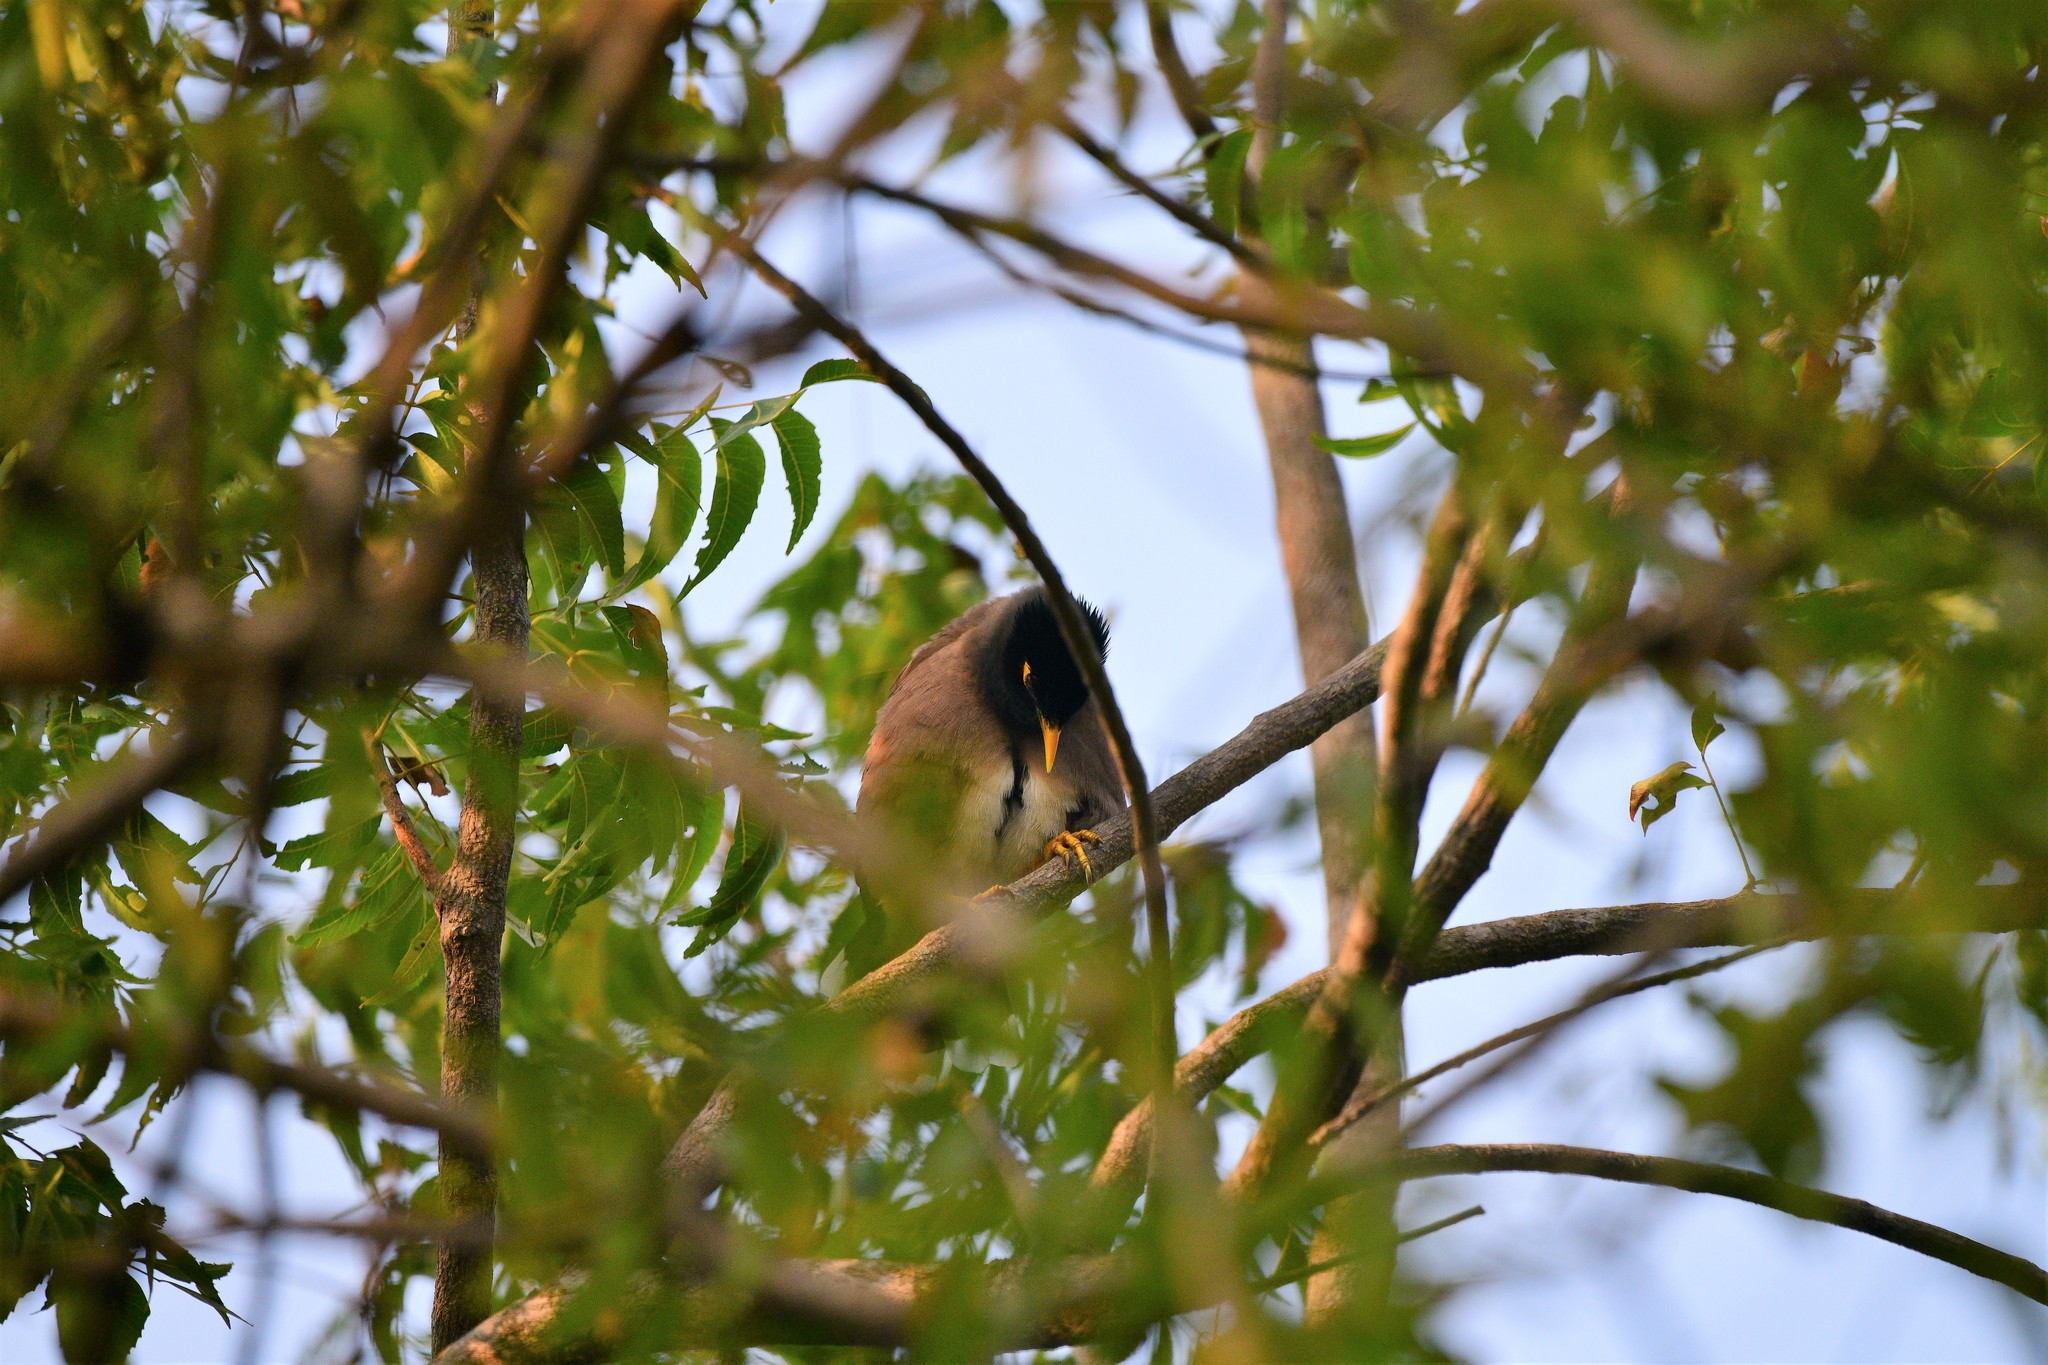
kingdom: Animalia
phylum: Chordata
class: Aves
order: Passeriformes
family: Sturnidae
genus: Acridotheres
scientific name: Acridotheres tristis
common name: Common myna
